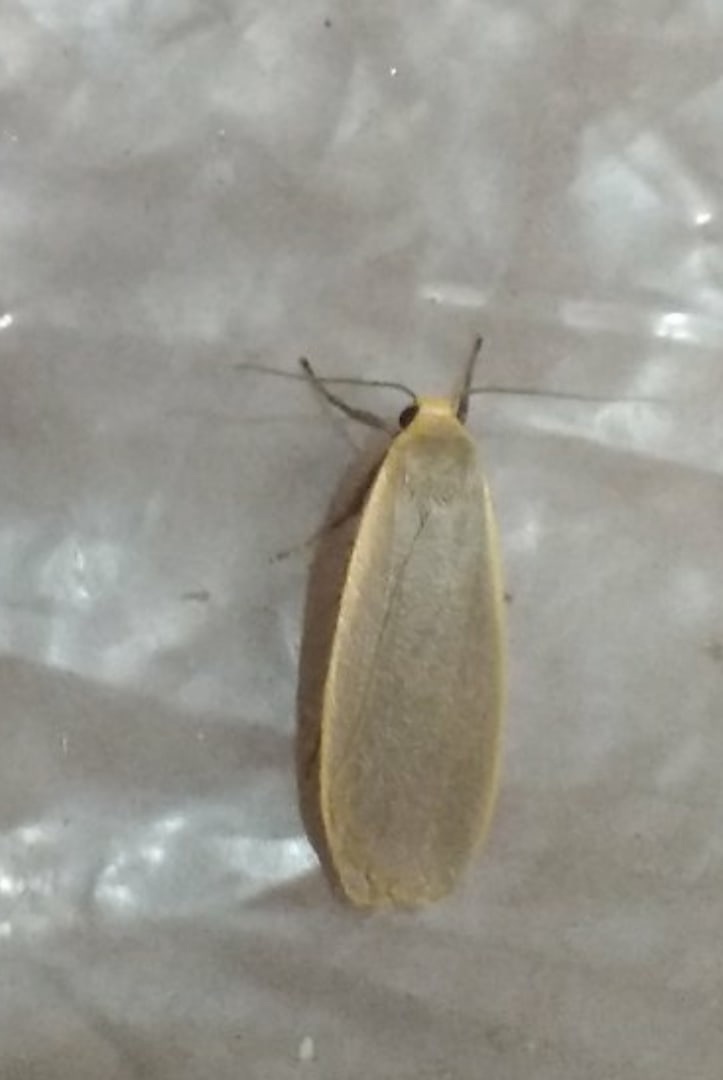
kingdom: Animalia
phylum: Arthropoda
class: Insecta
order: Lepidoptera
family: Erebidae
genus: Collita
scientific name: Collita griseola
